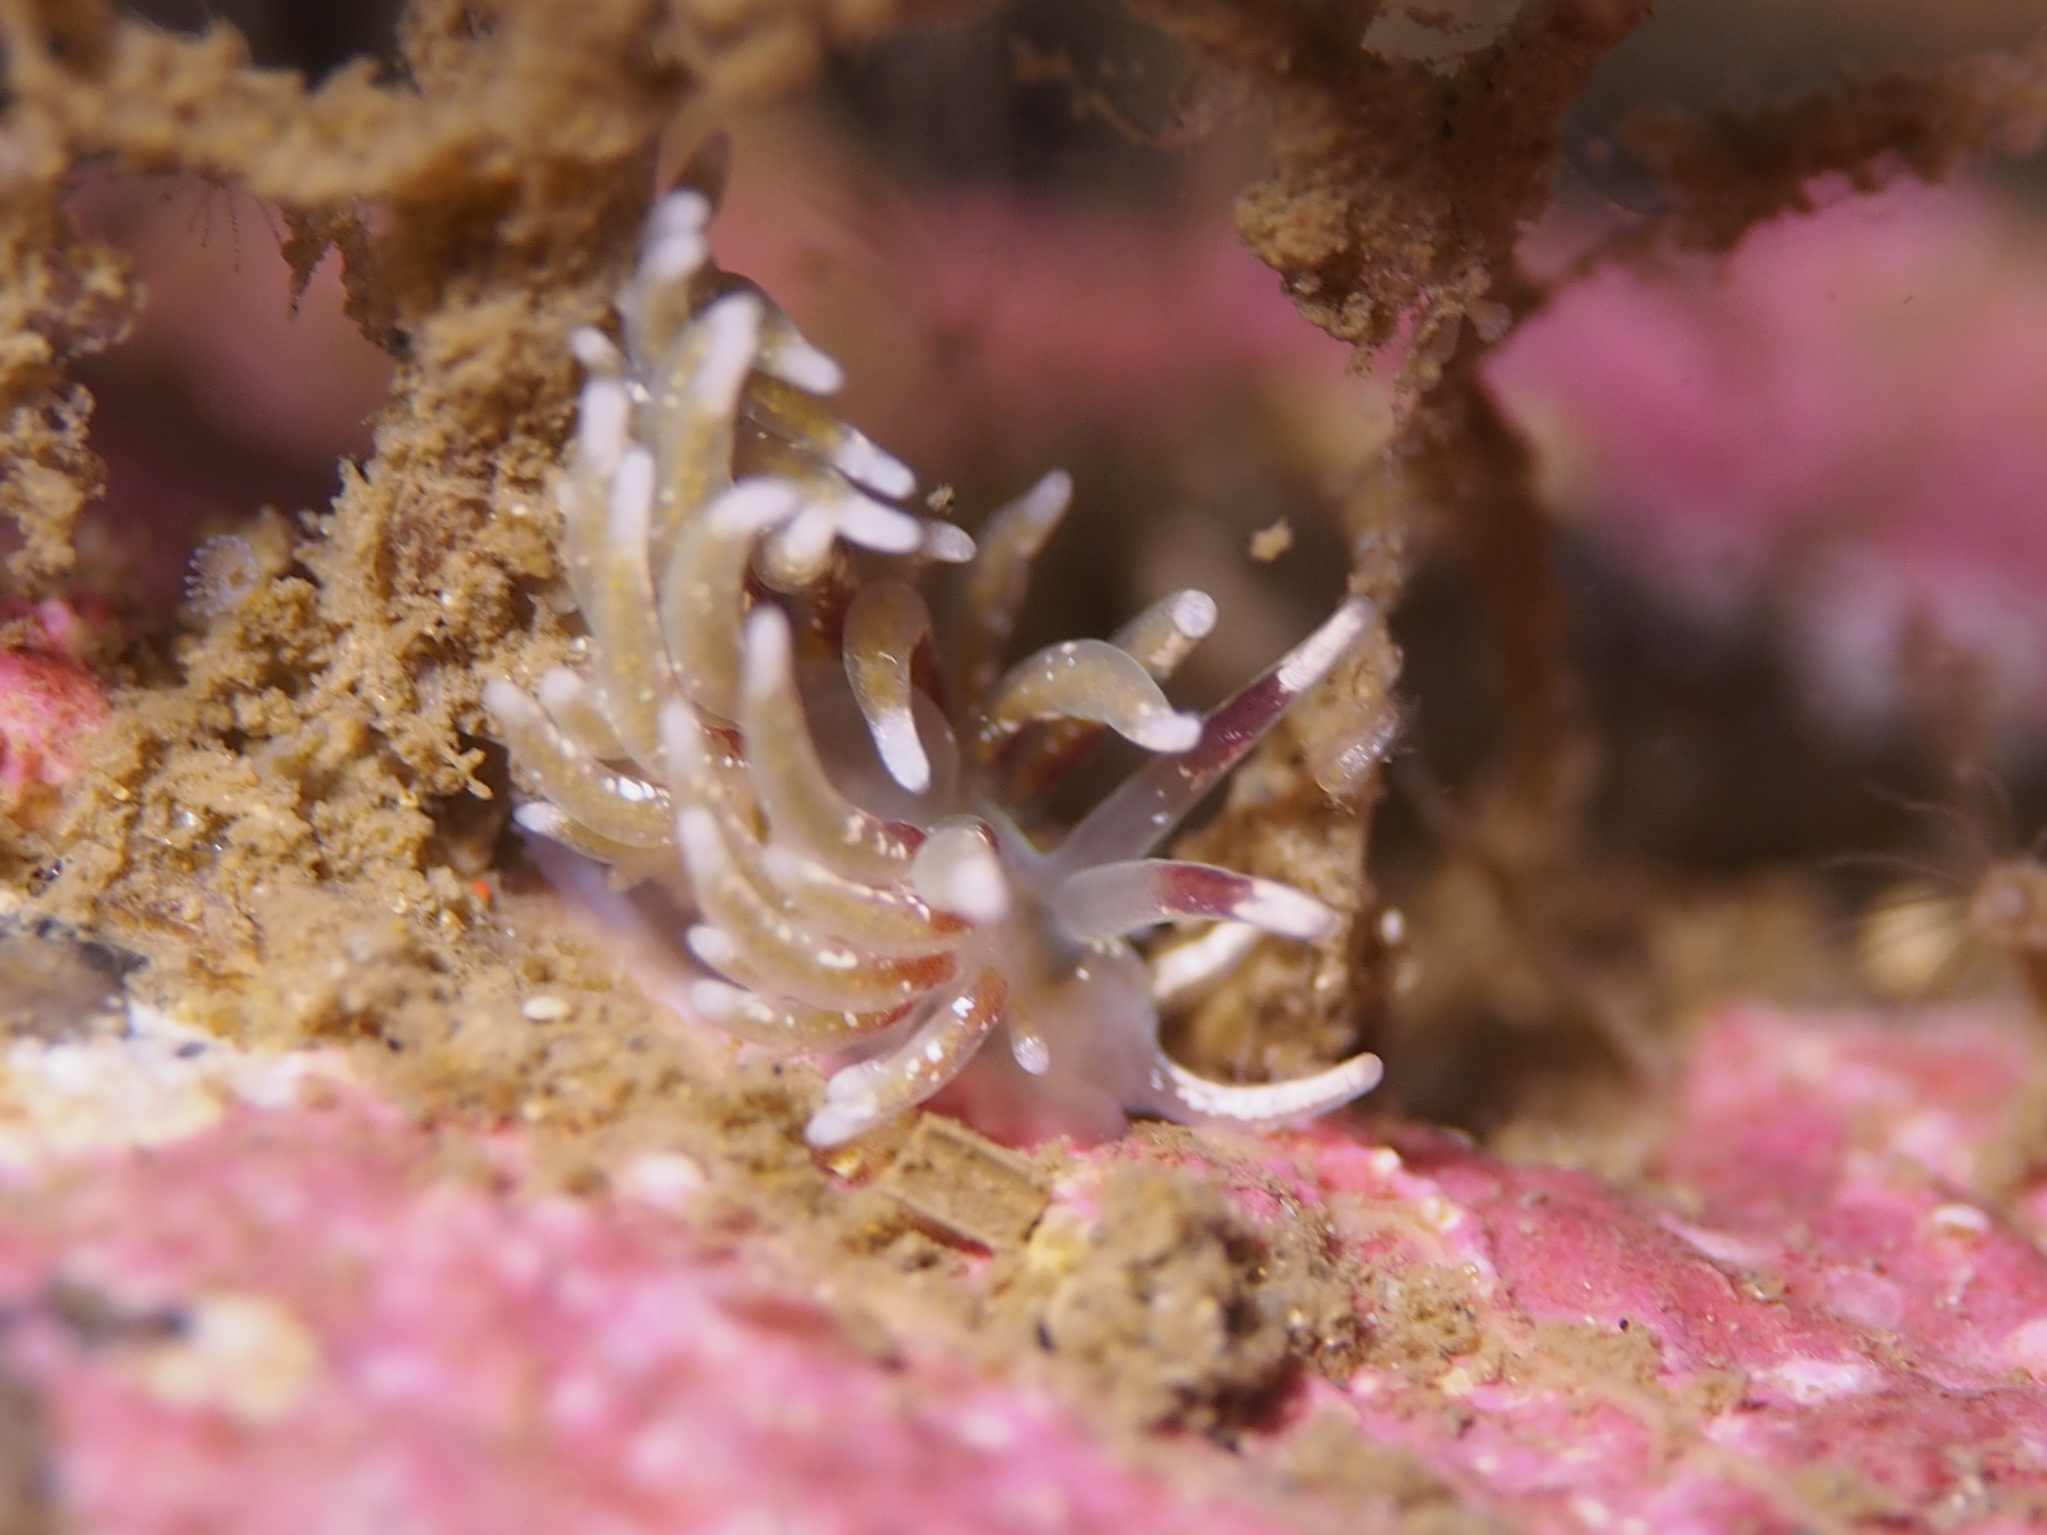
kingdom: Animalia
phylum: Mollusca
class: Gastropoda
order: Nudibranchia
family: Trinchesiidae
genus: Rubramoena
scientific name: Rubramoena rubescens
